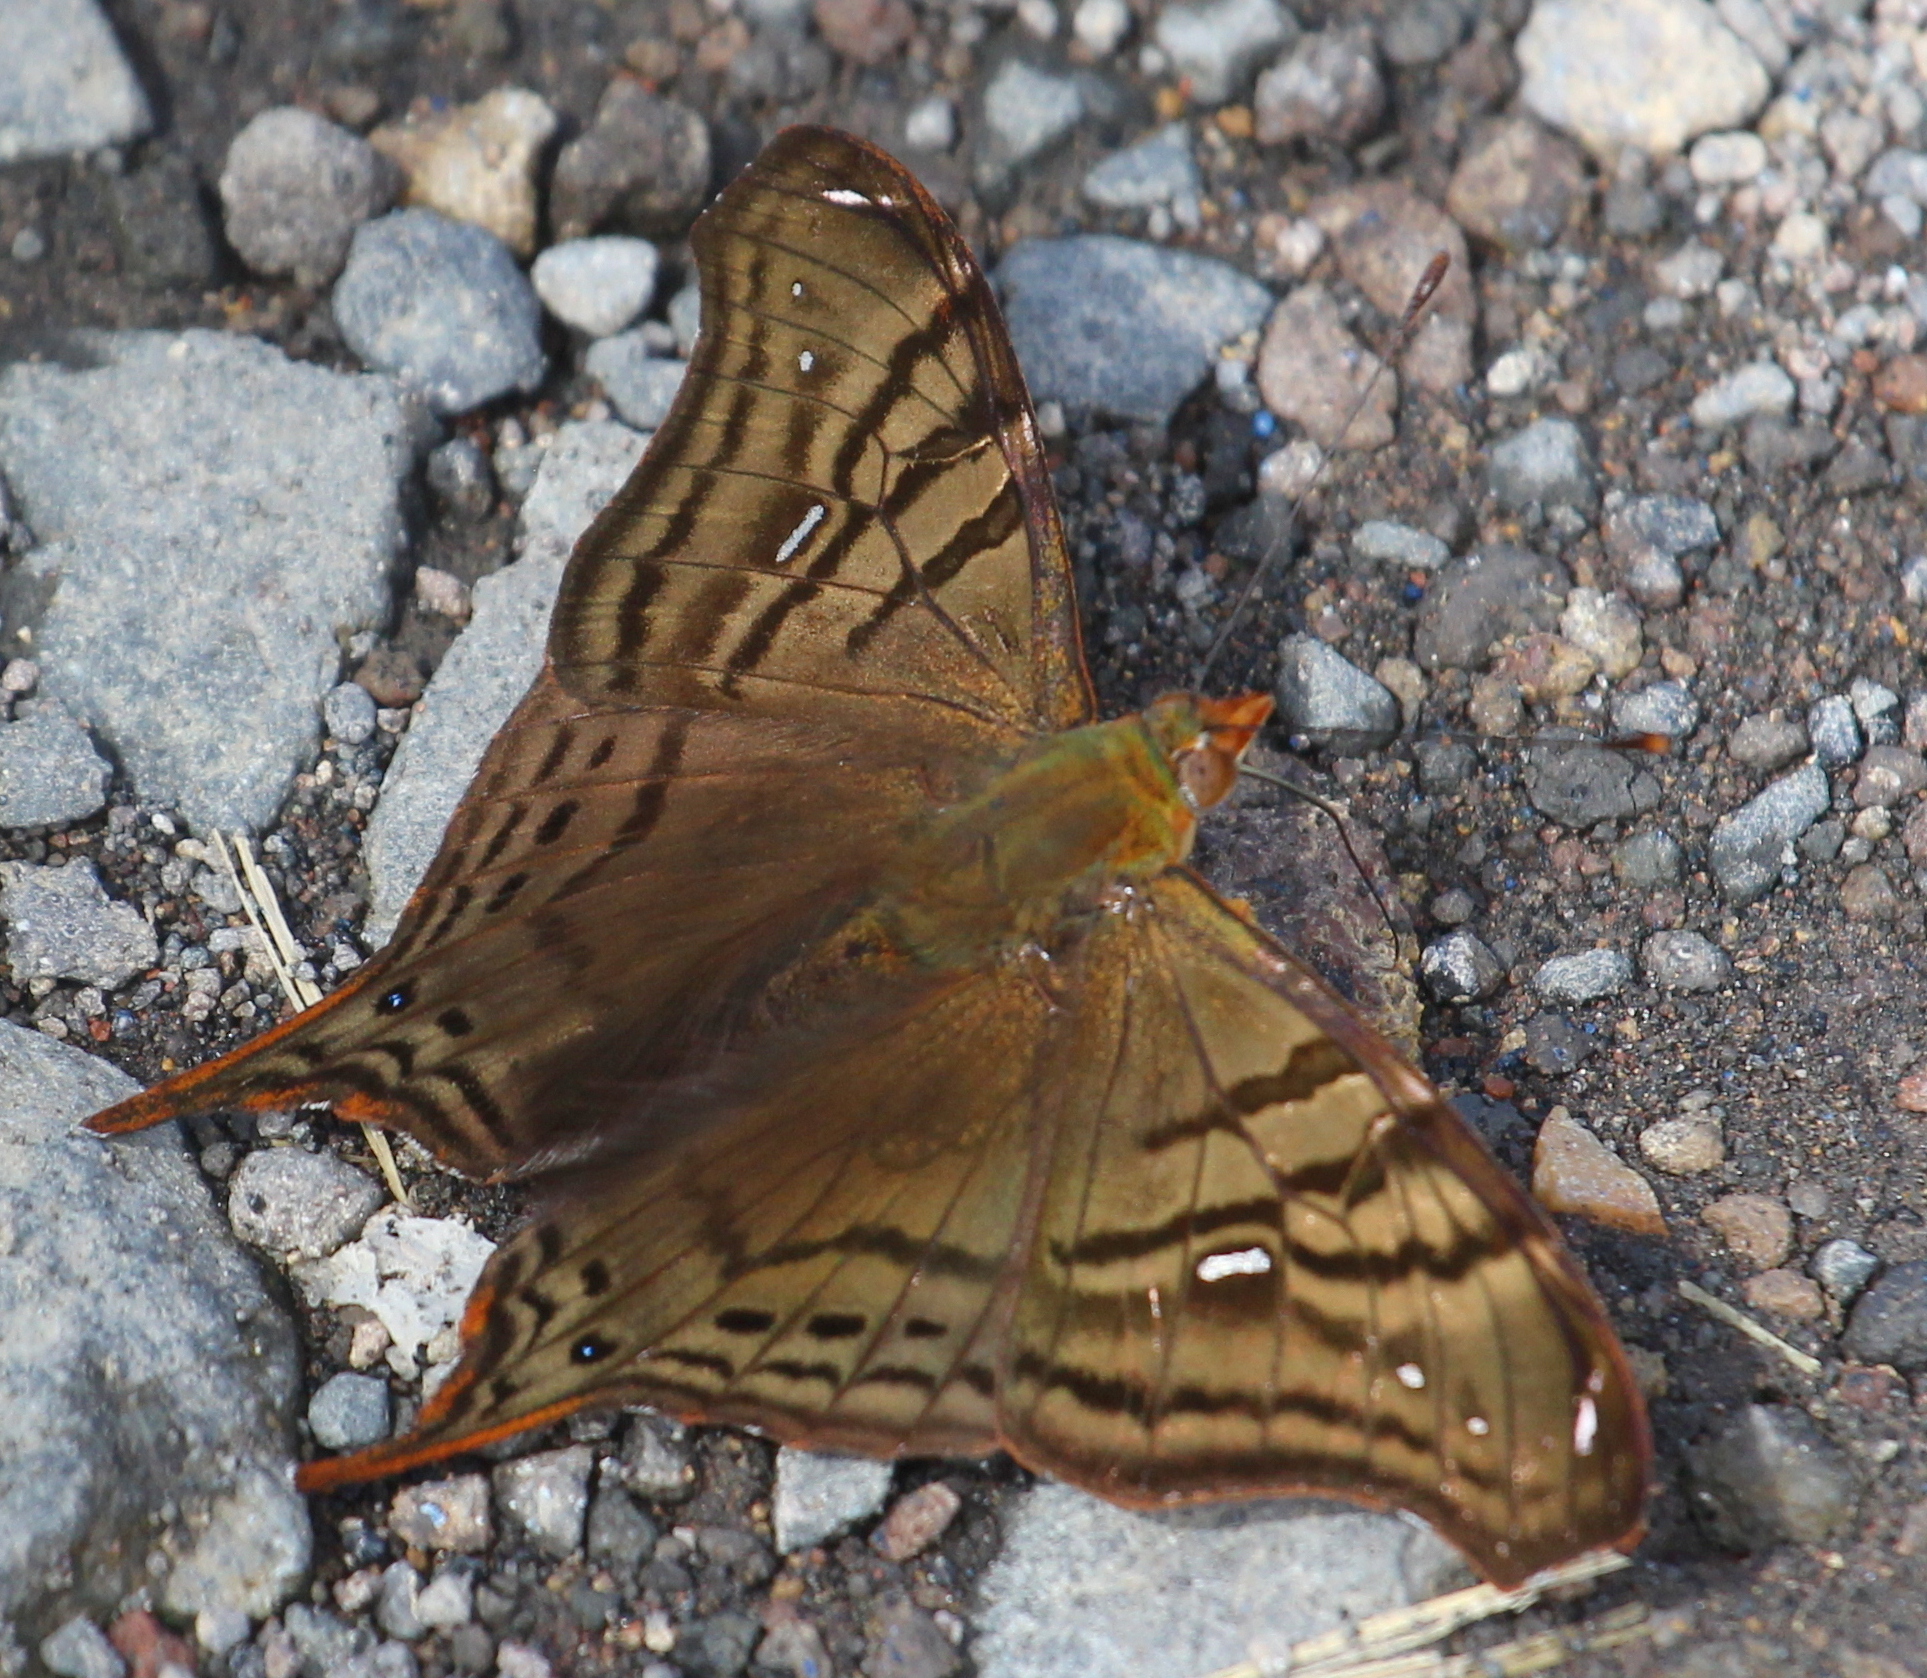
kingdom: Animalia
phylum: Arthropoda
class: Insecta
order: Lepidoptera
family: Nymphalidae
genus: Hypanartia
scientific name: Hypanartia dione
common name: Banded mapwing
